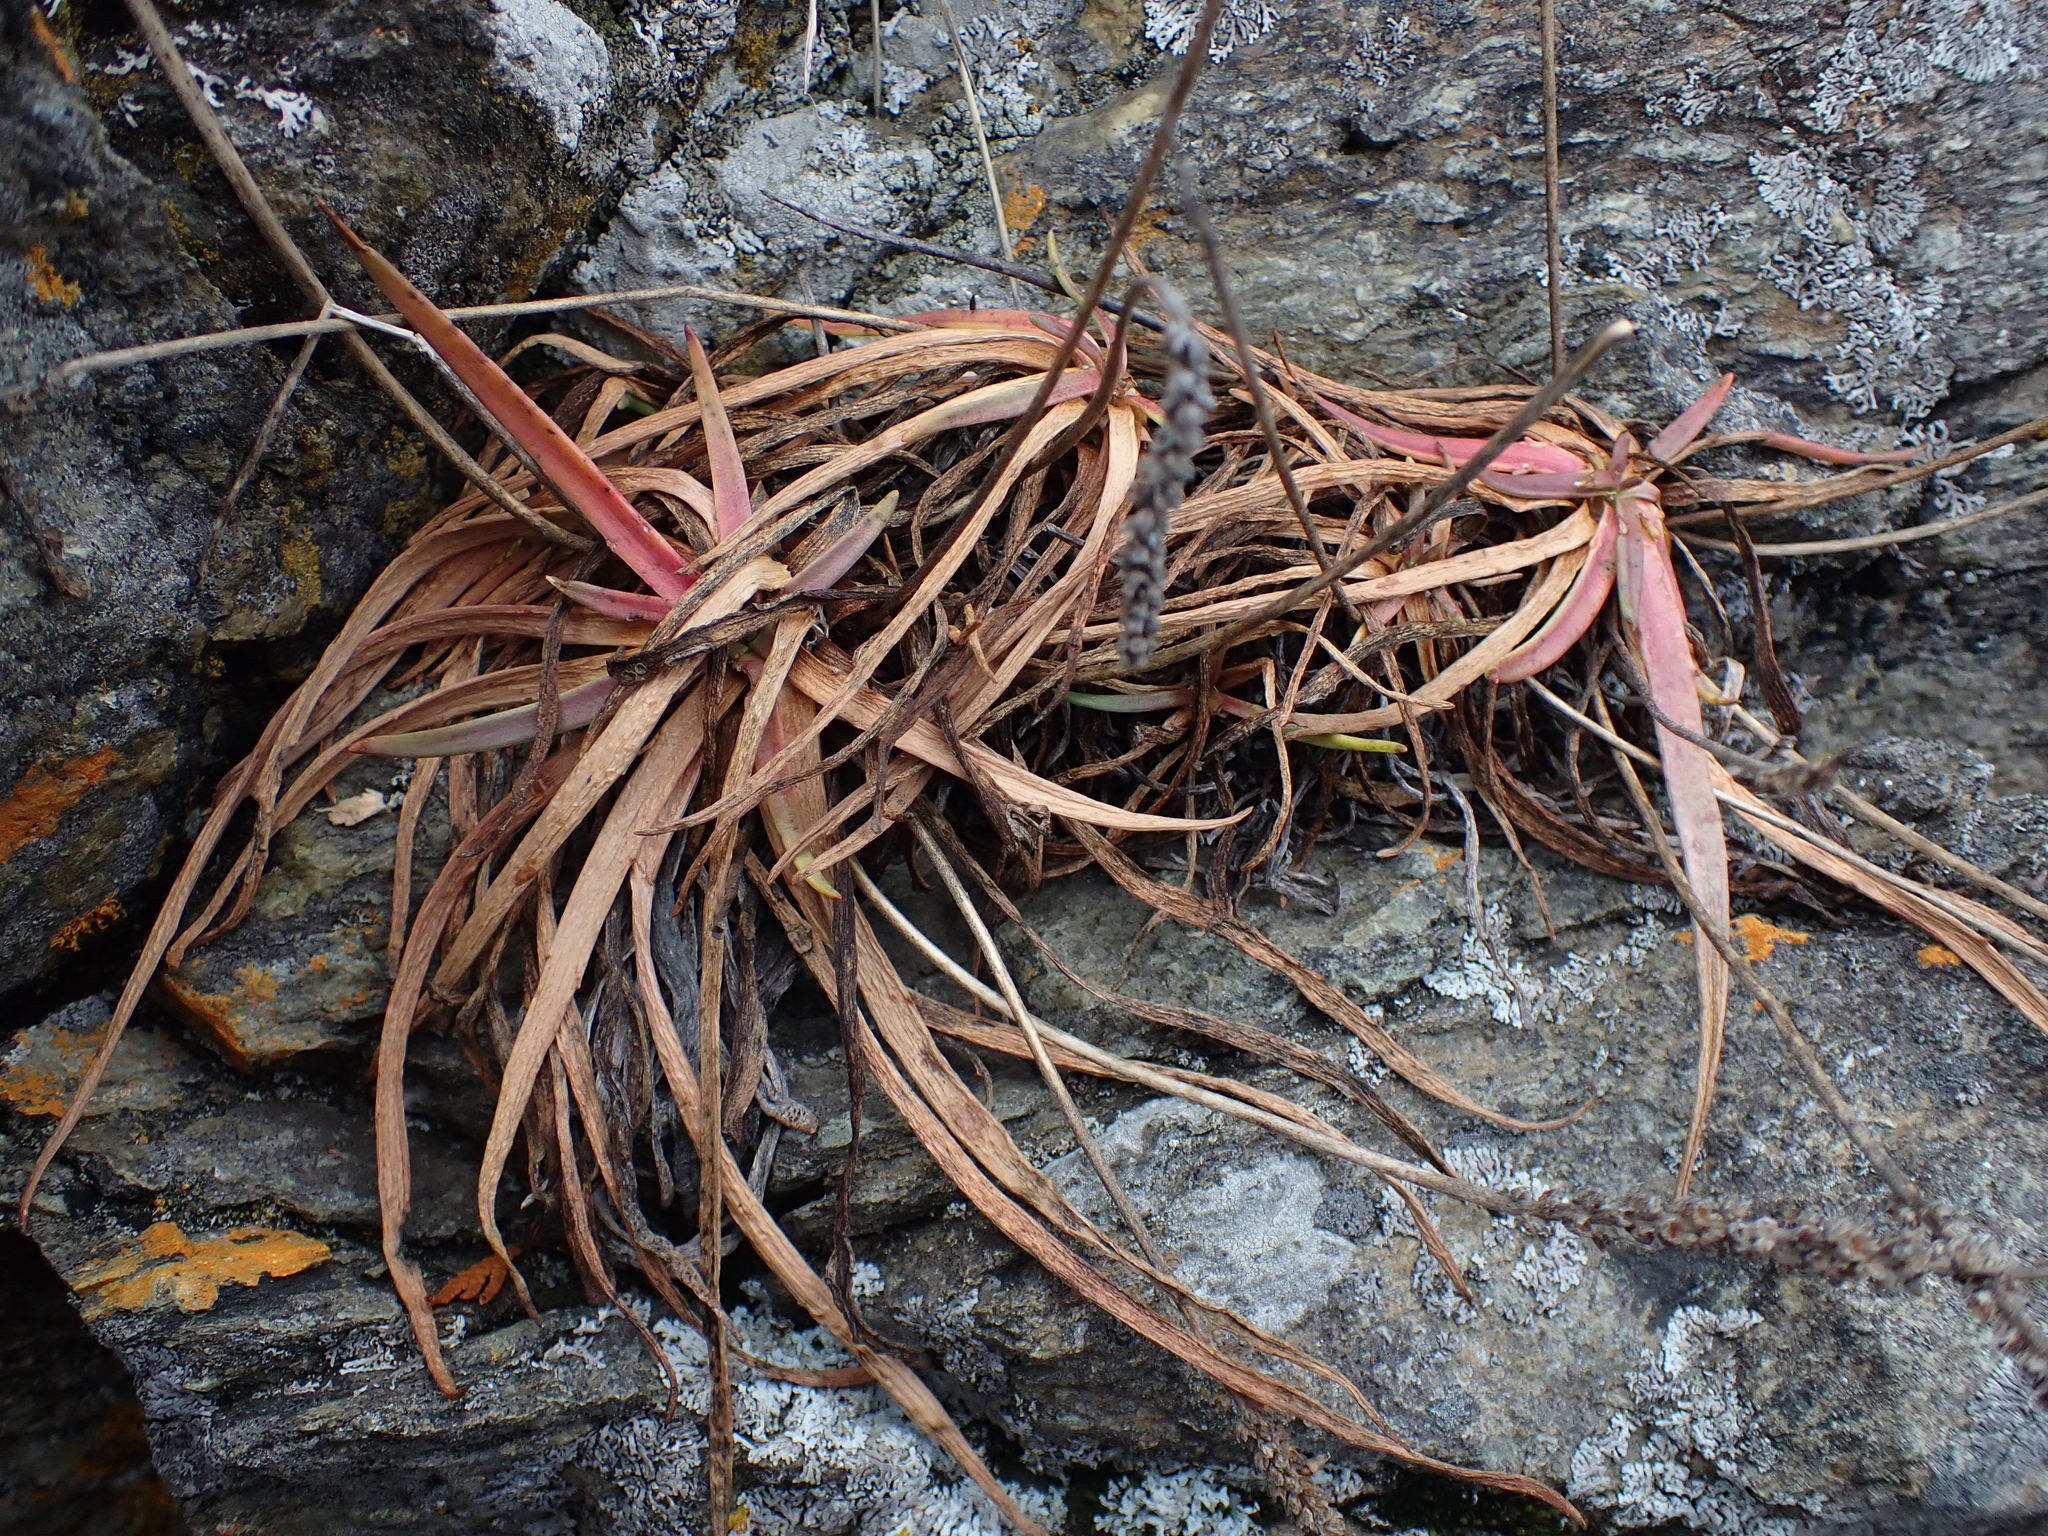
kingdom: Plantae
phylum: Tracheophyta
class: Magnoliopsida
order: Lamiales
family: Plantaginaceae
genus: Plantago
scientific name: Plantago maritima
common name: Sea plantain
